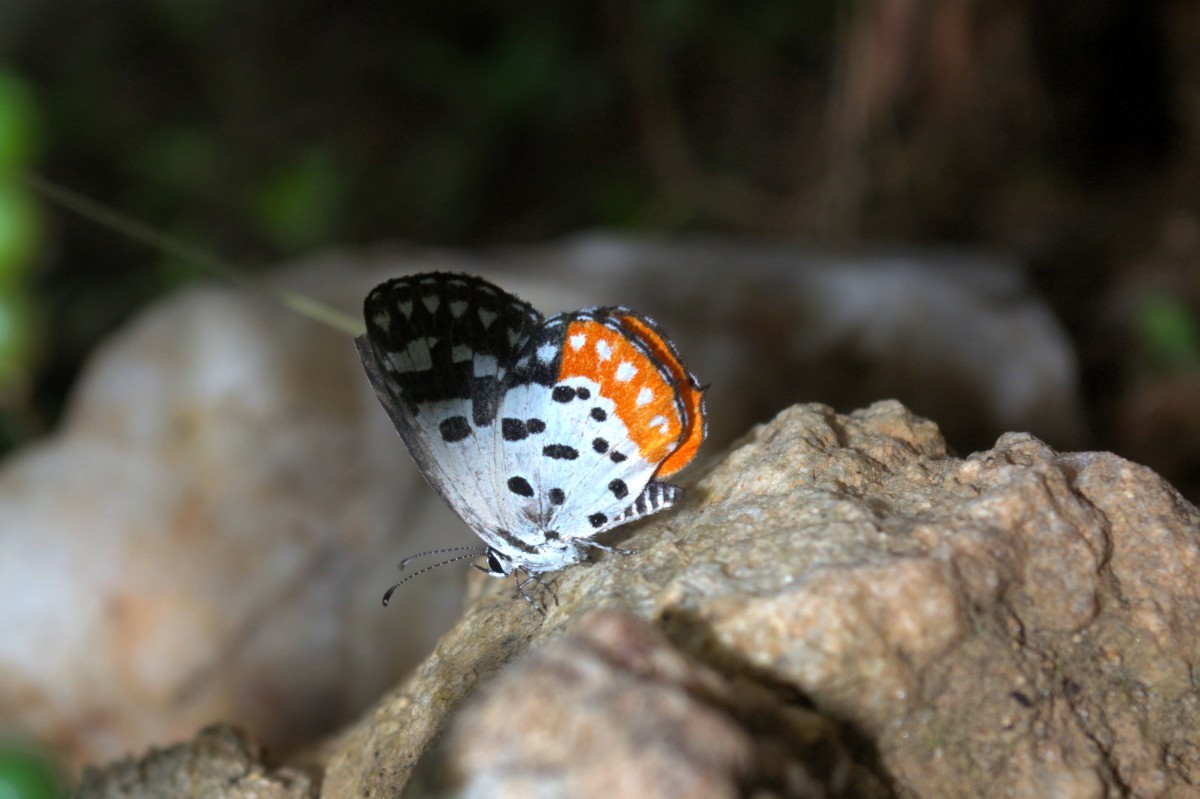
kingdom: Animalia
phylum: Arthropoda
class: Insecta
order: Lepidoptera
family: Lycaenidae
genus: Talicada
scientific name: Talicada nyseus
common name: Red pierrot
